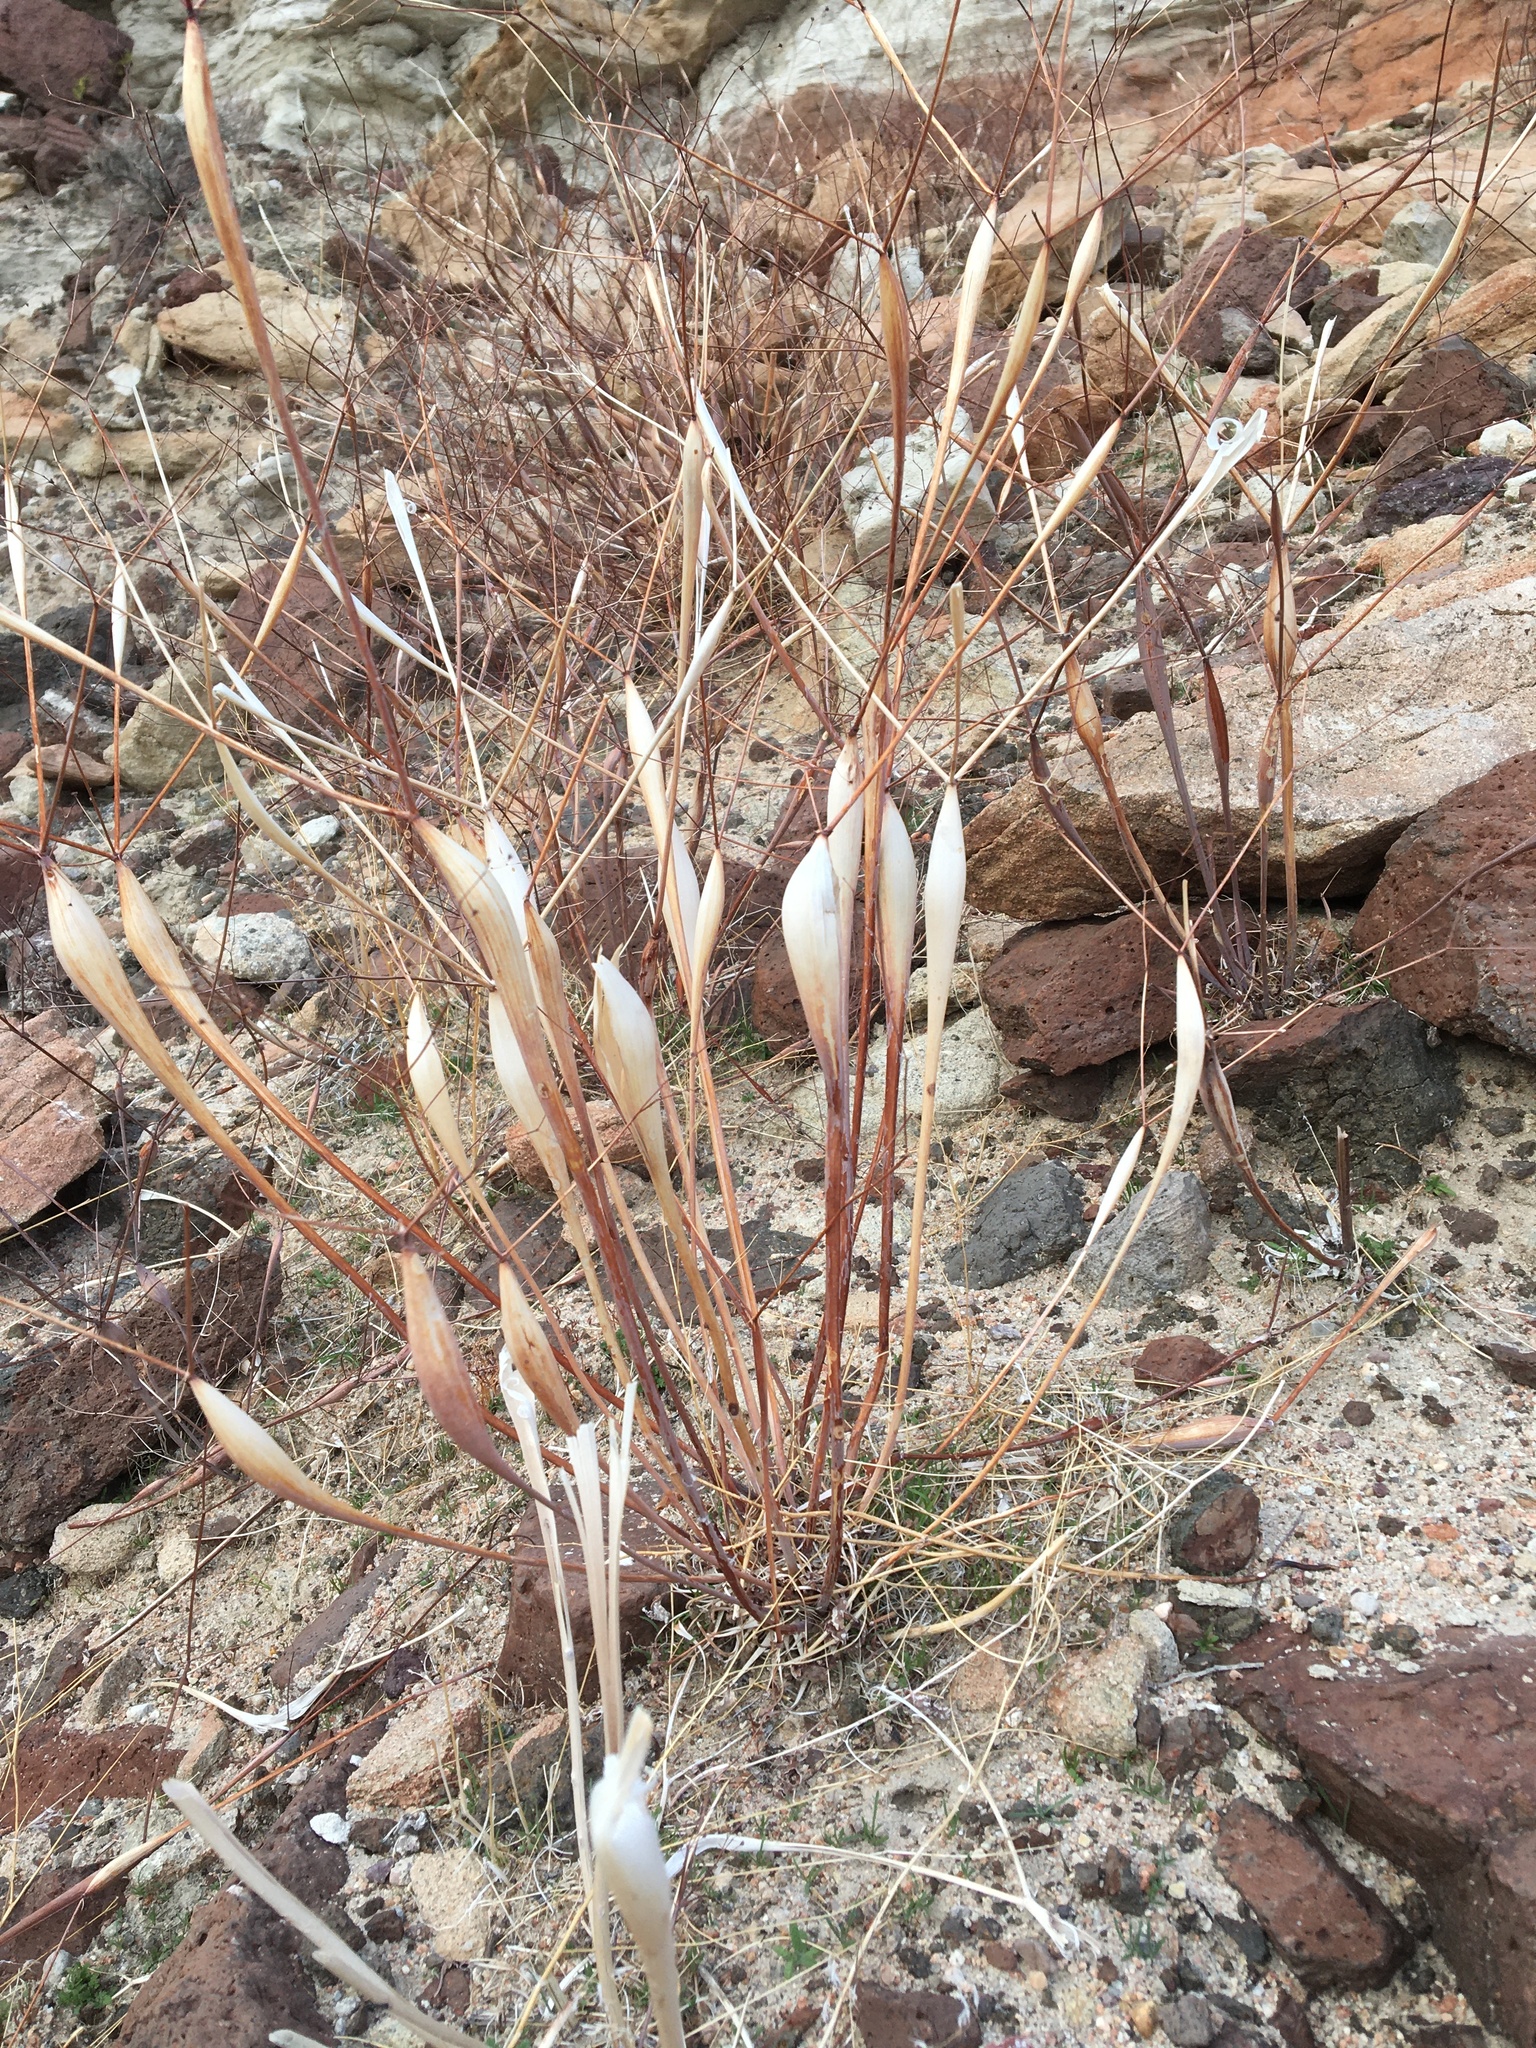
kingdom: Plantae
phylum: Tracheophyta
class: Magnoliopsida
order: Caryophyllales
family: Polygonaceae
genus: Eriogonum
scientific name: Eriogonum inflatum
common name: Desert trumpet
